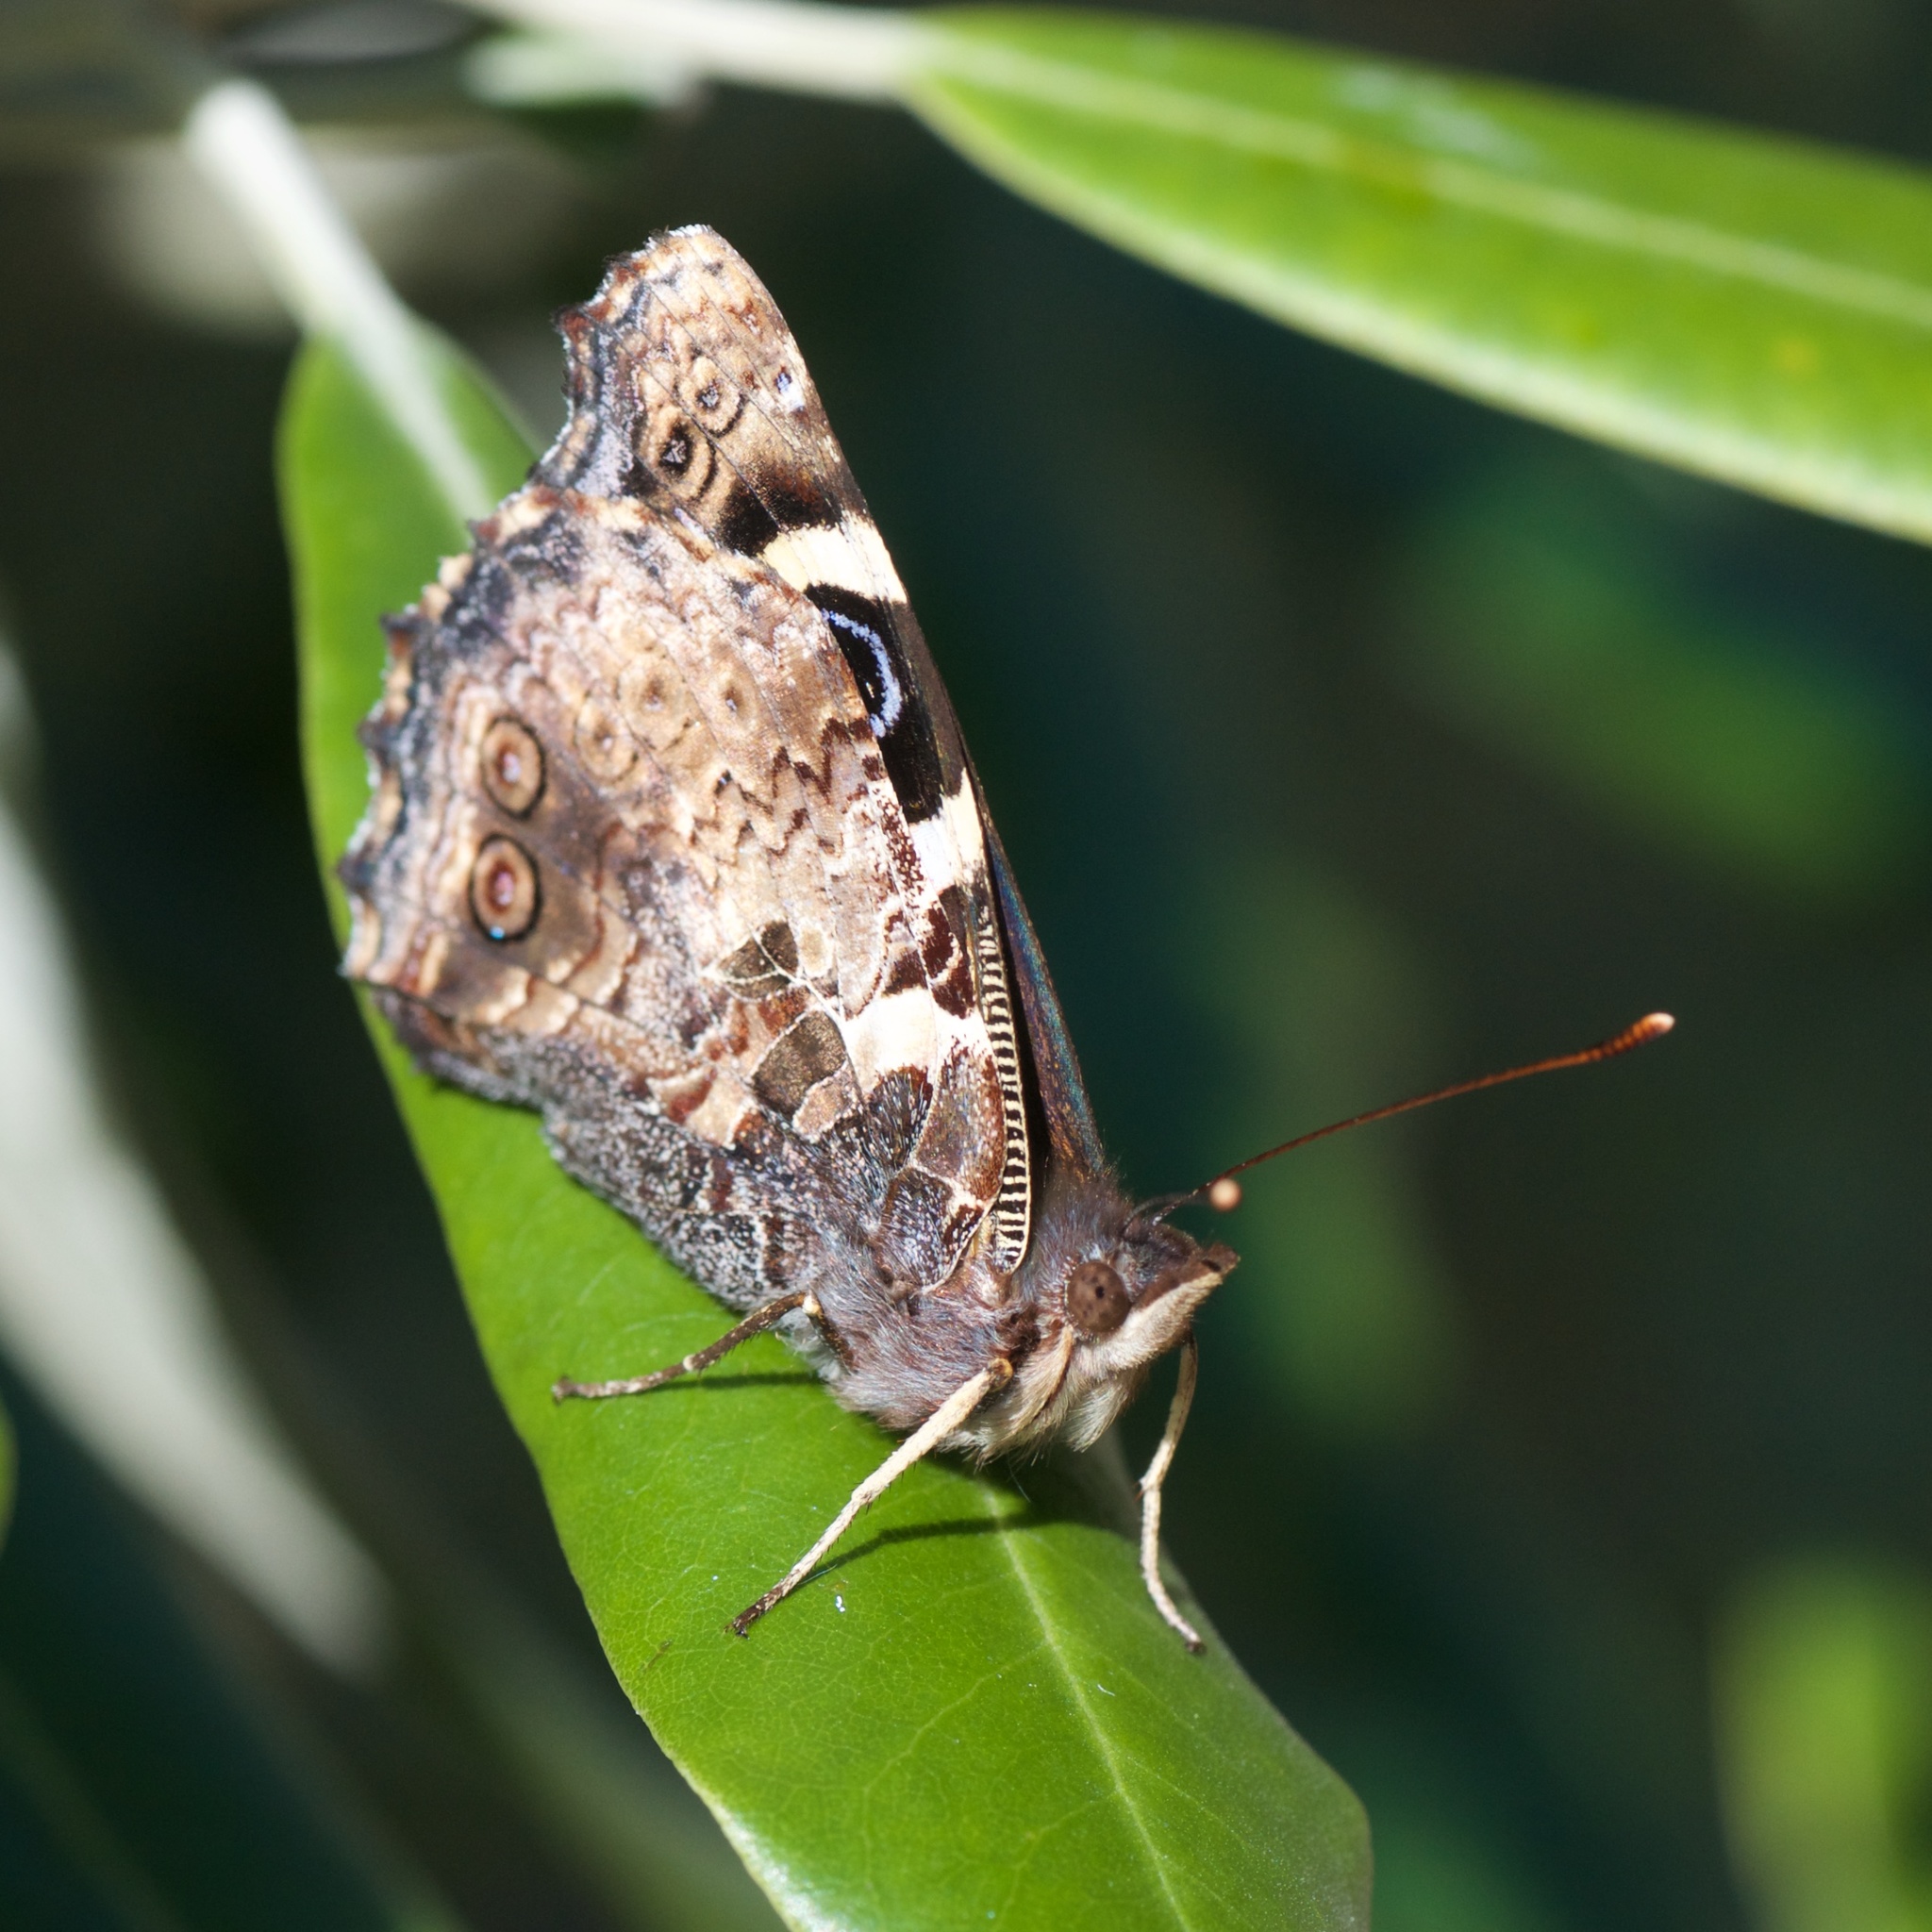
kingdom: Animalia
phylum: Arthropoda
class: Insecta
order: Lepidoptera
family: Nymphalidae
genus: Vanessa
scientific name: Vanessa itea
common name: Yellow admiral
